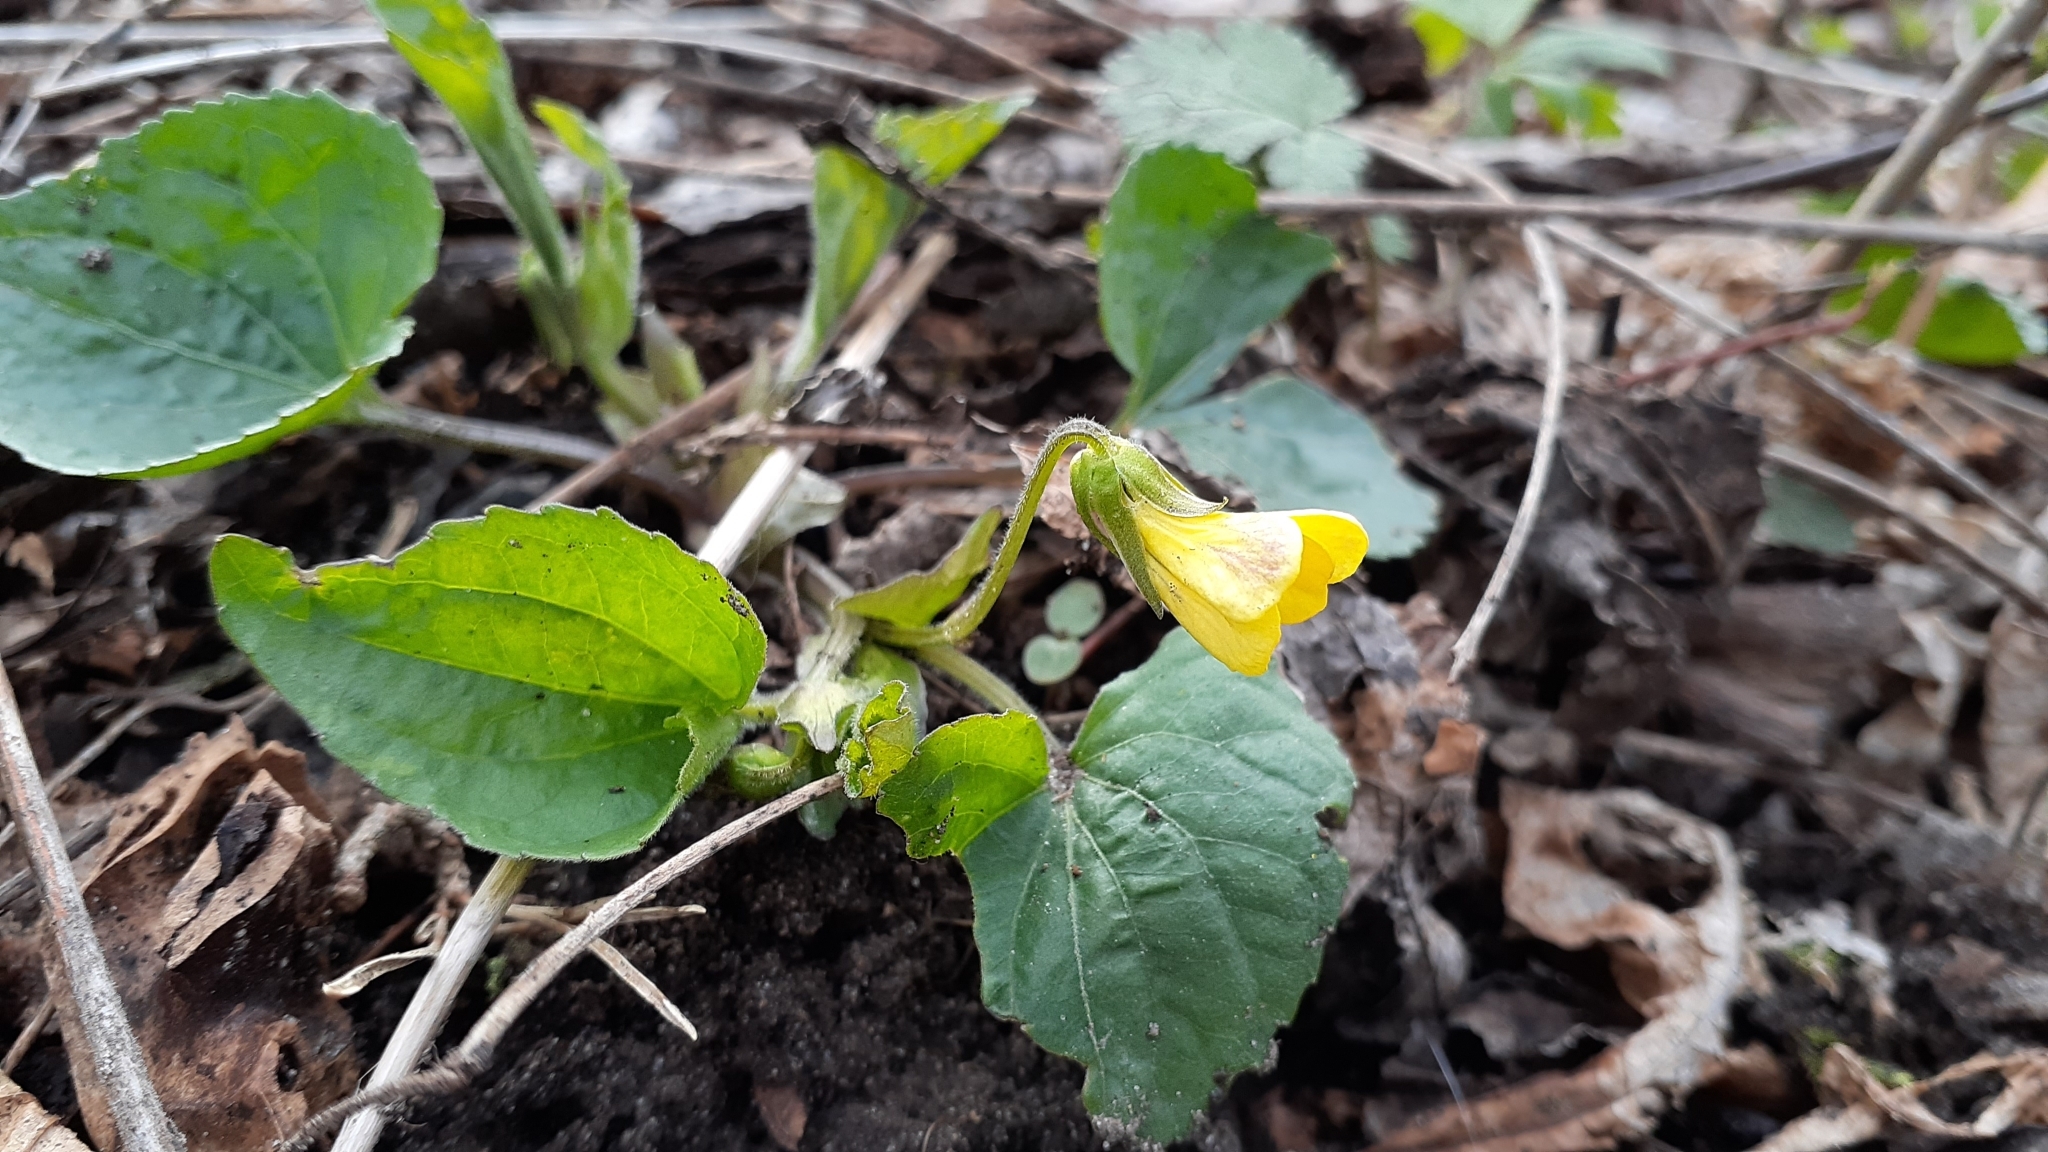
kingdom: Plantae
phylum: Tracheophyta
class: Magnoliopsida
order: Malpighiales
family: Violaceae
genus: Viola
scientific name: Viola eriocarpa
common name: Smooth yellow violet
